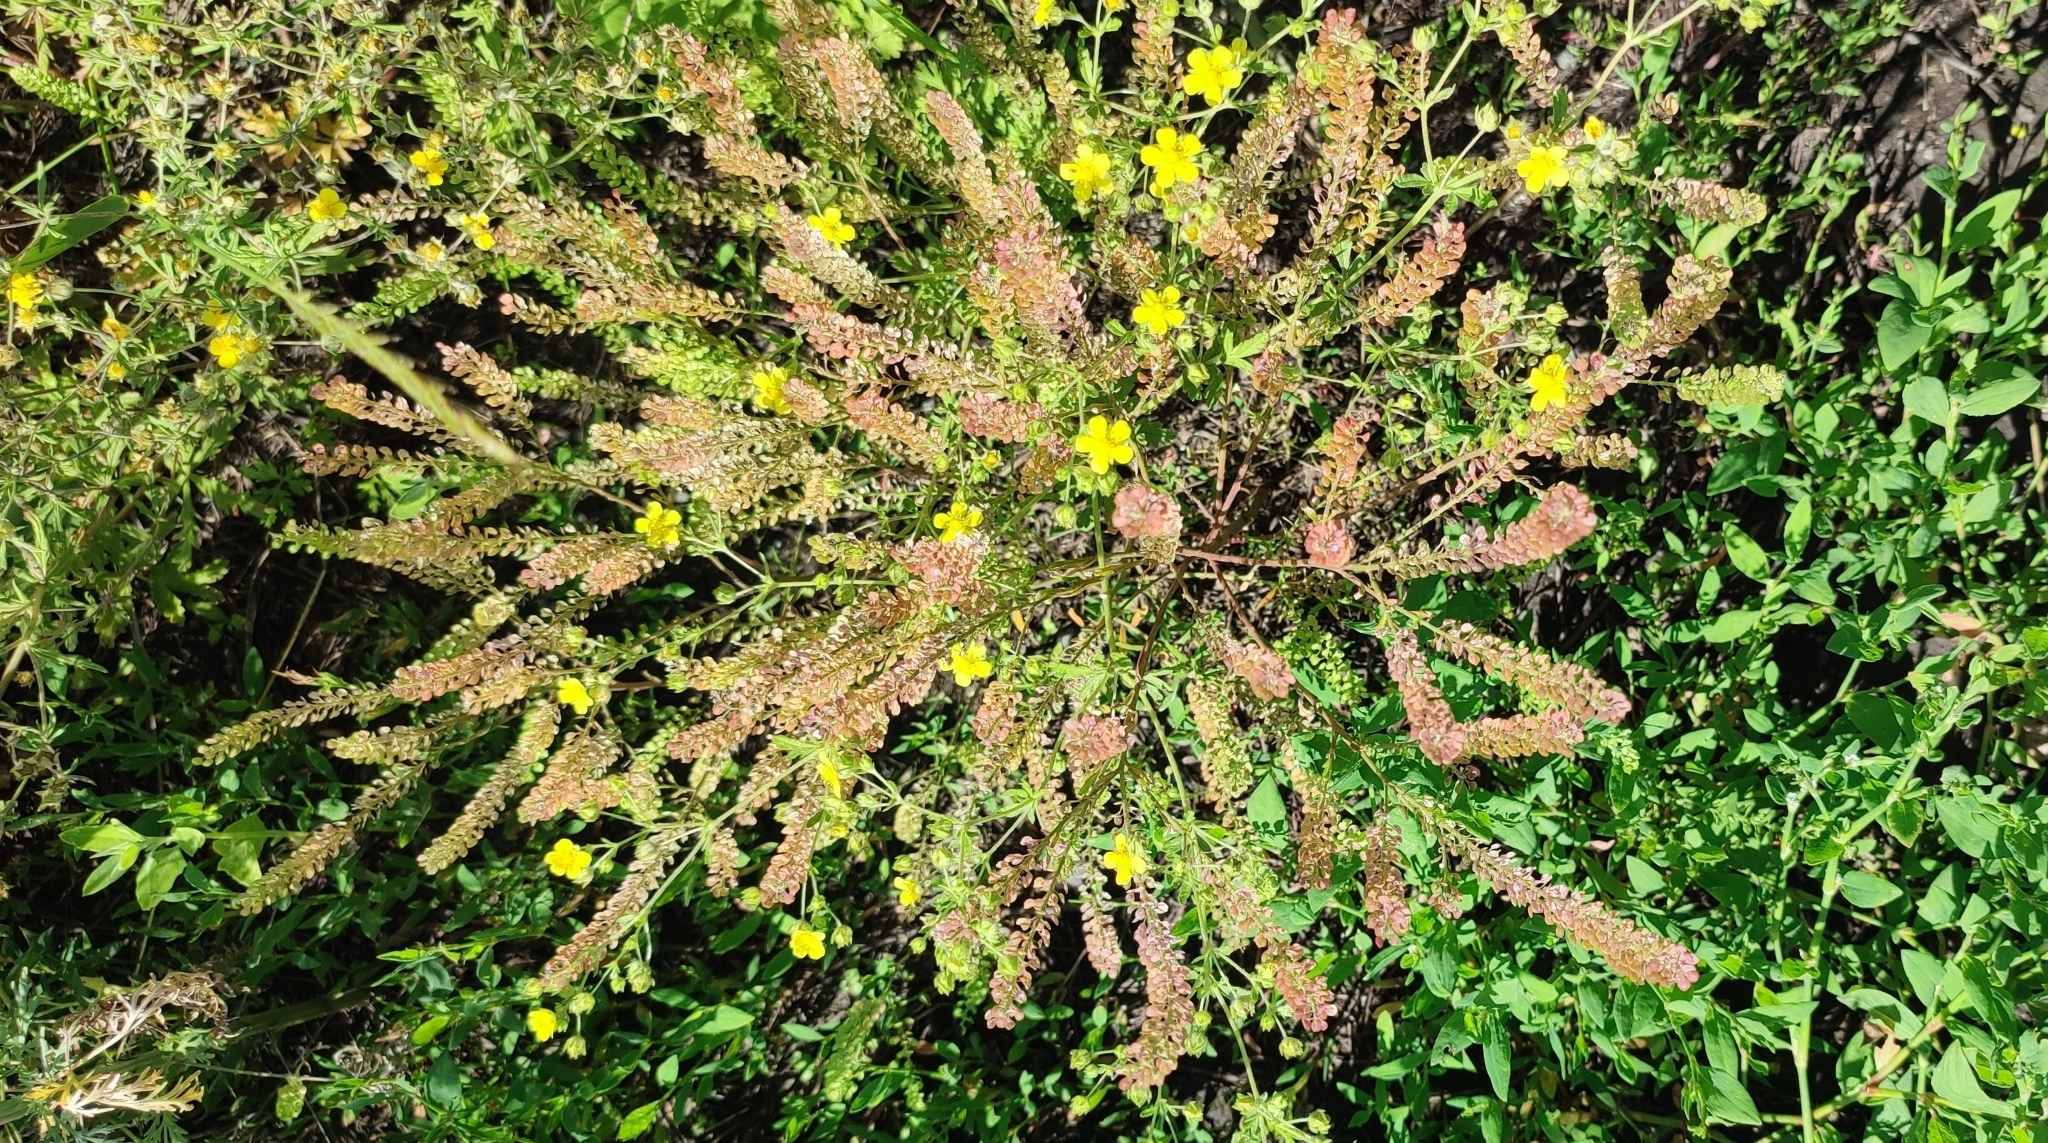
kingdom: Plantae
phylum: Tracheophyta
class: Magnoliopsida
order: Brassicales
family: Brassicaceae
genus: Lepidium
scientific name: Lepidium densiflorum
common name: Miner's pepperwort
